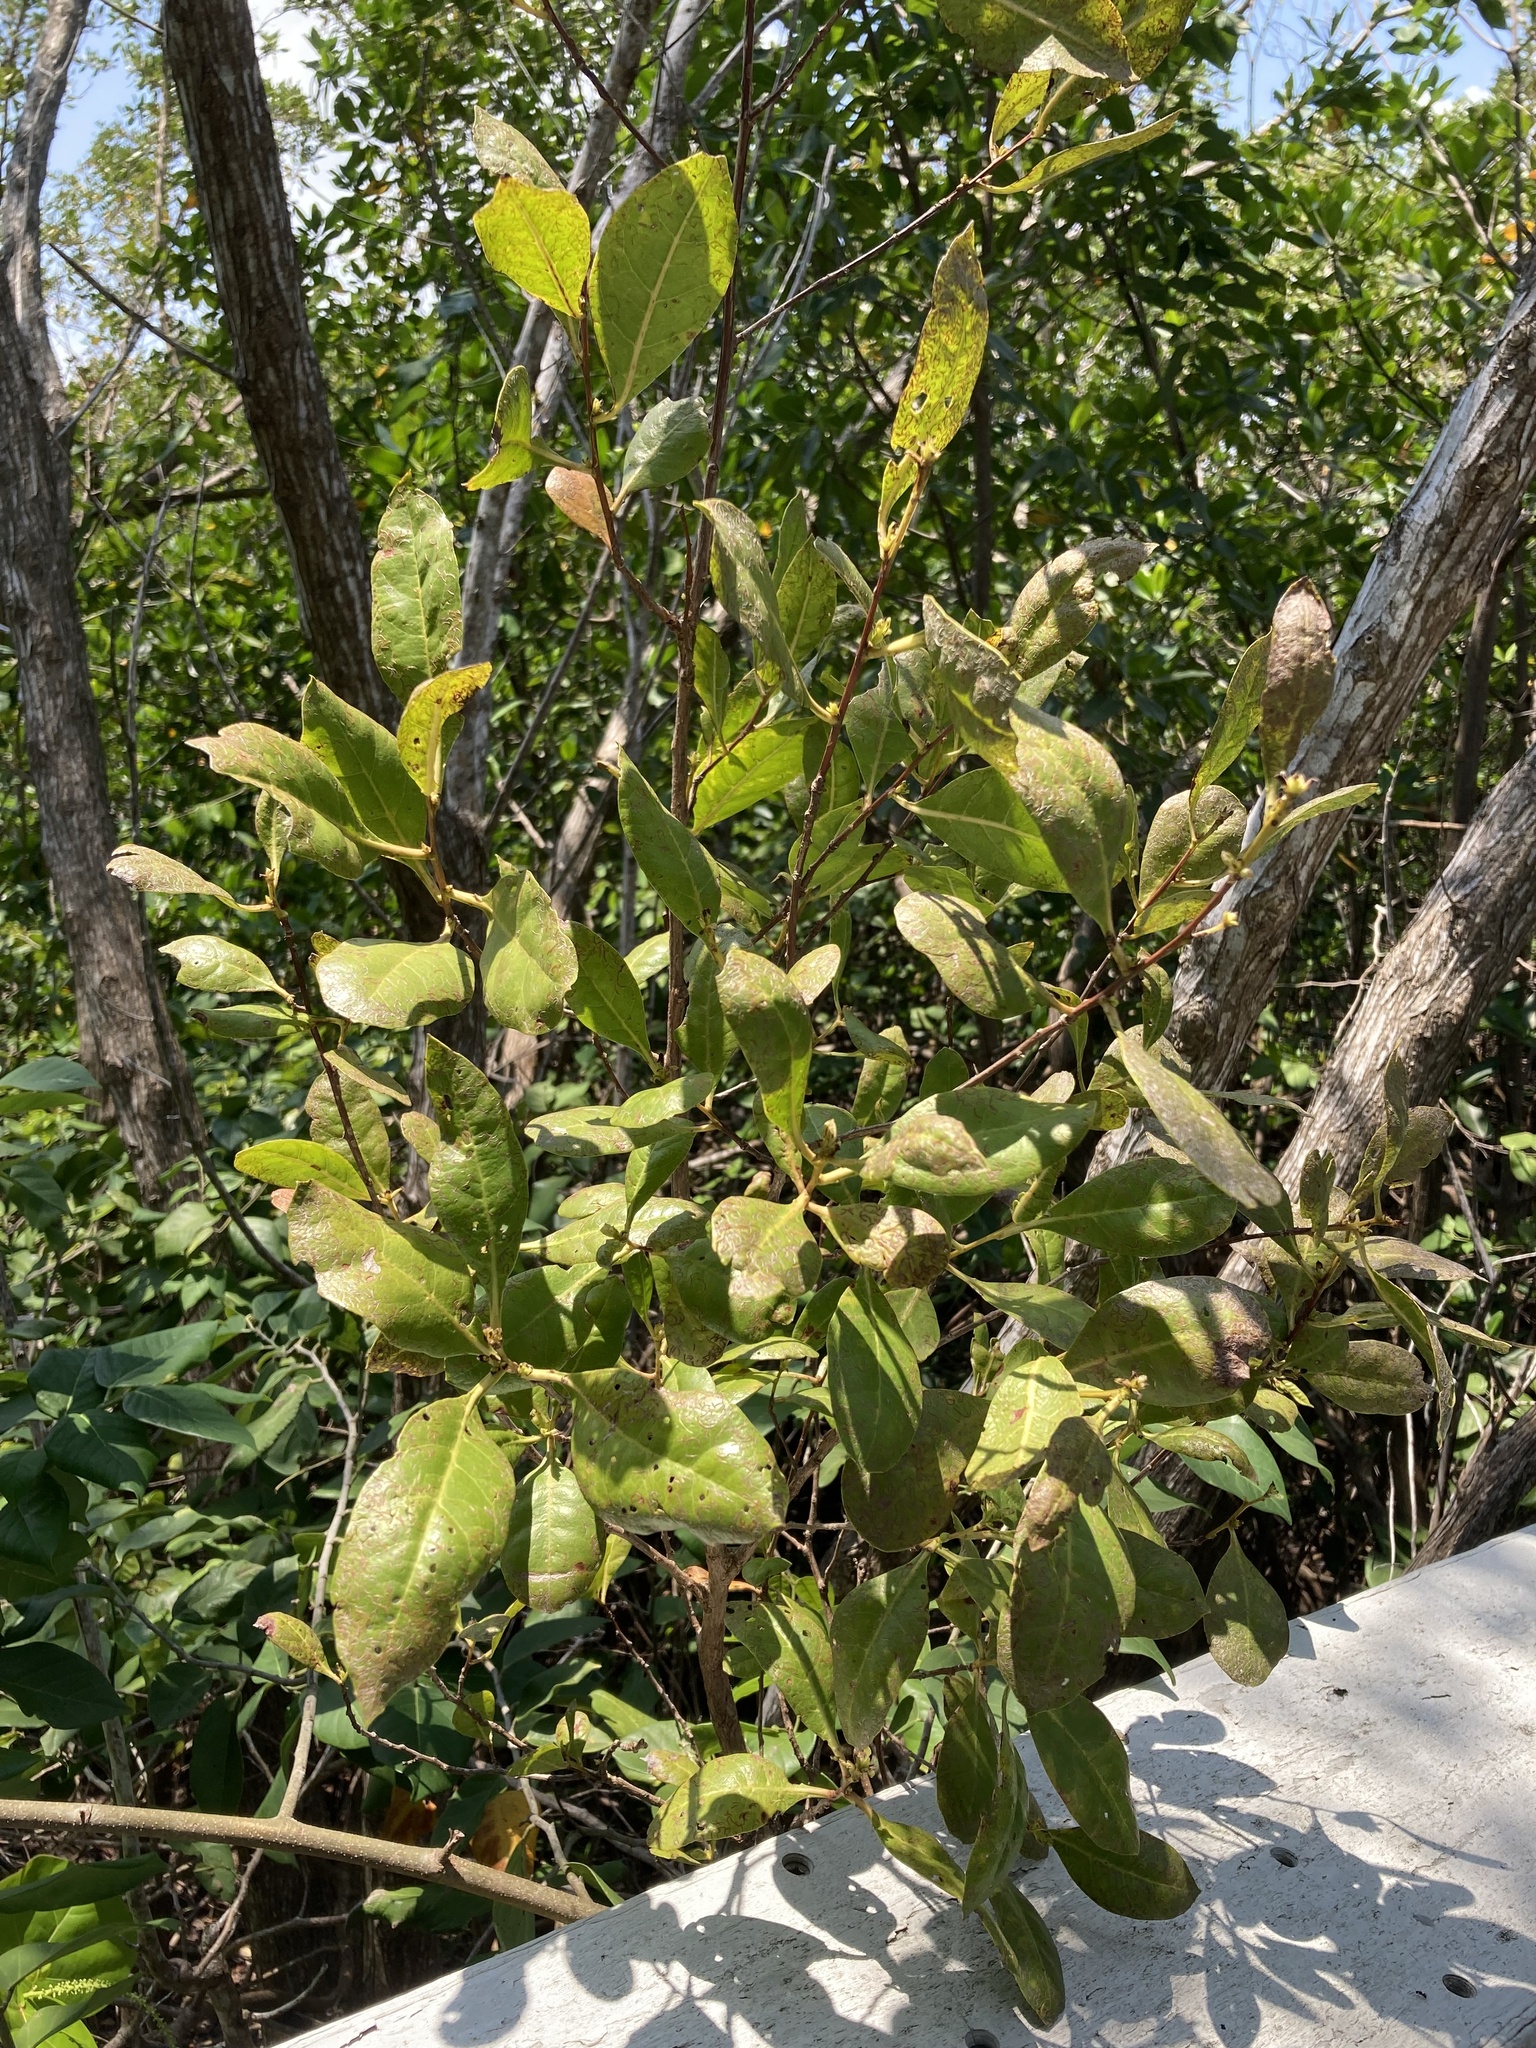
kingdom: Plantae
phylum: Tracheophyta
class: Magnoliopsida
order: Myrtales
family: Combretaceae
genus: Conocarpus
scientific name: Conocarpus erectus
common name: Button mangrove
